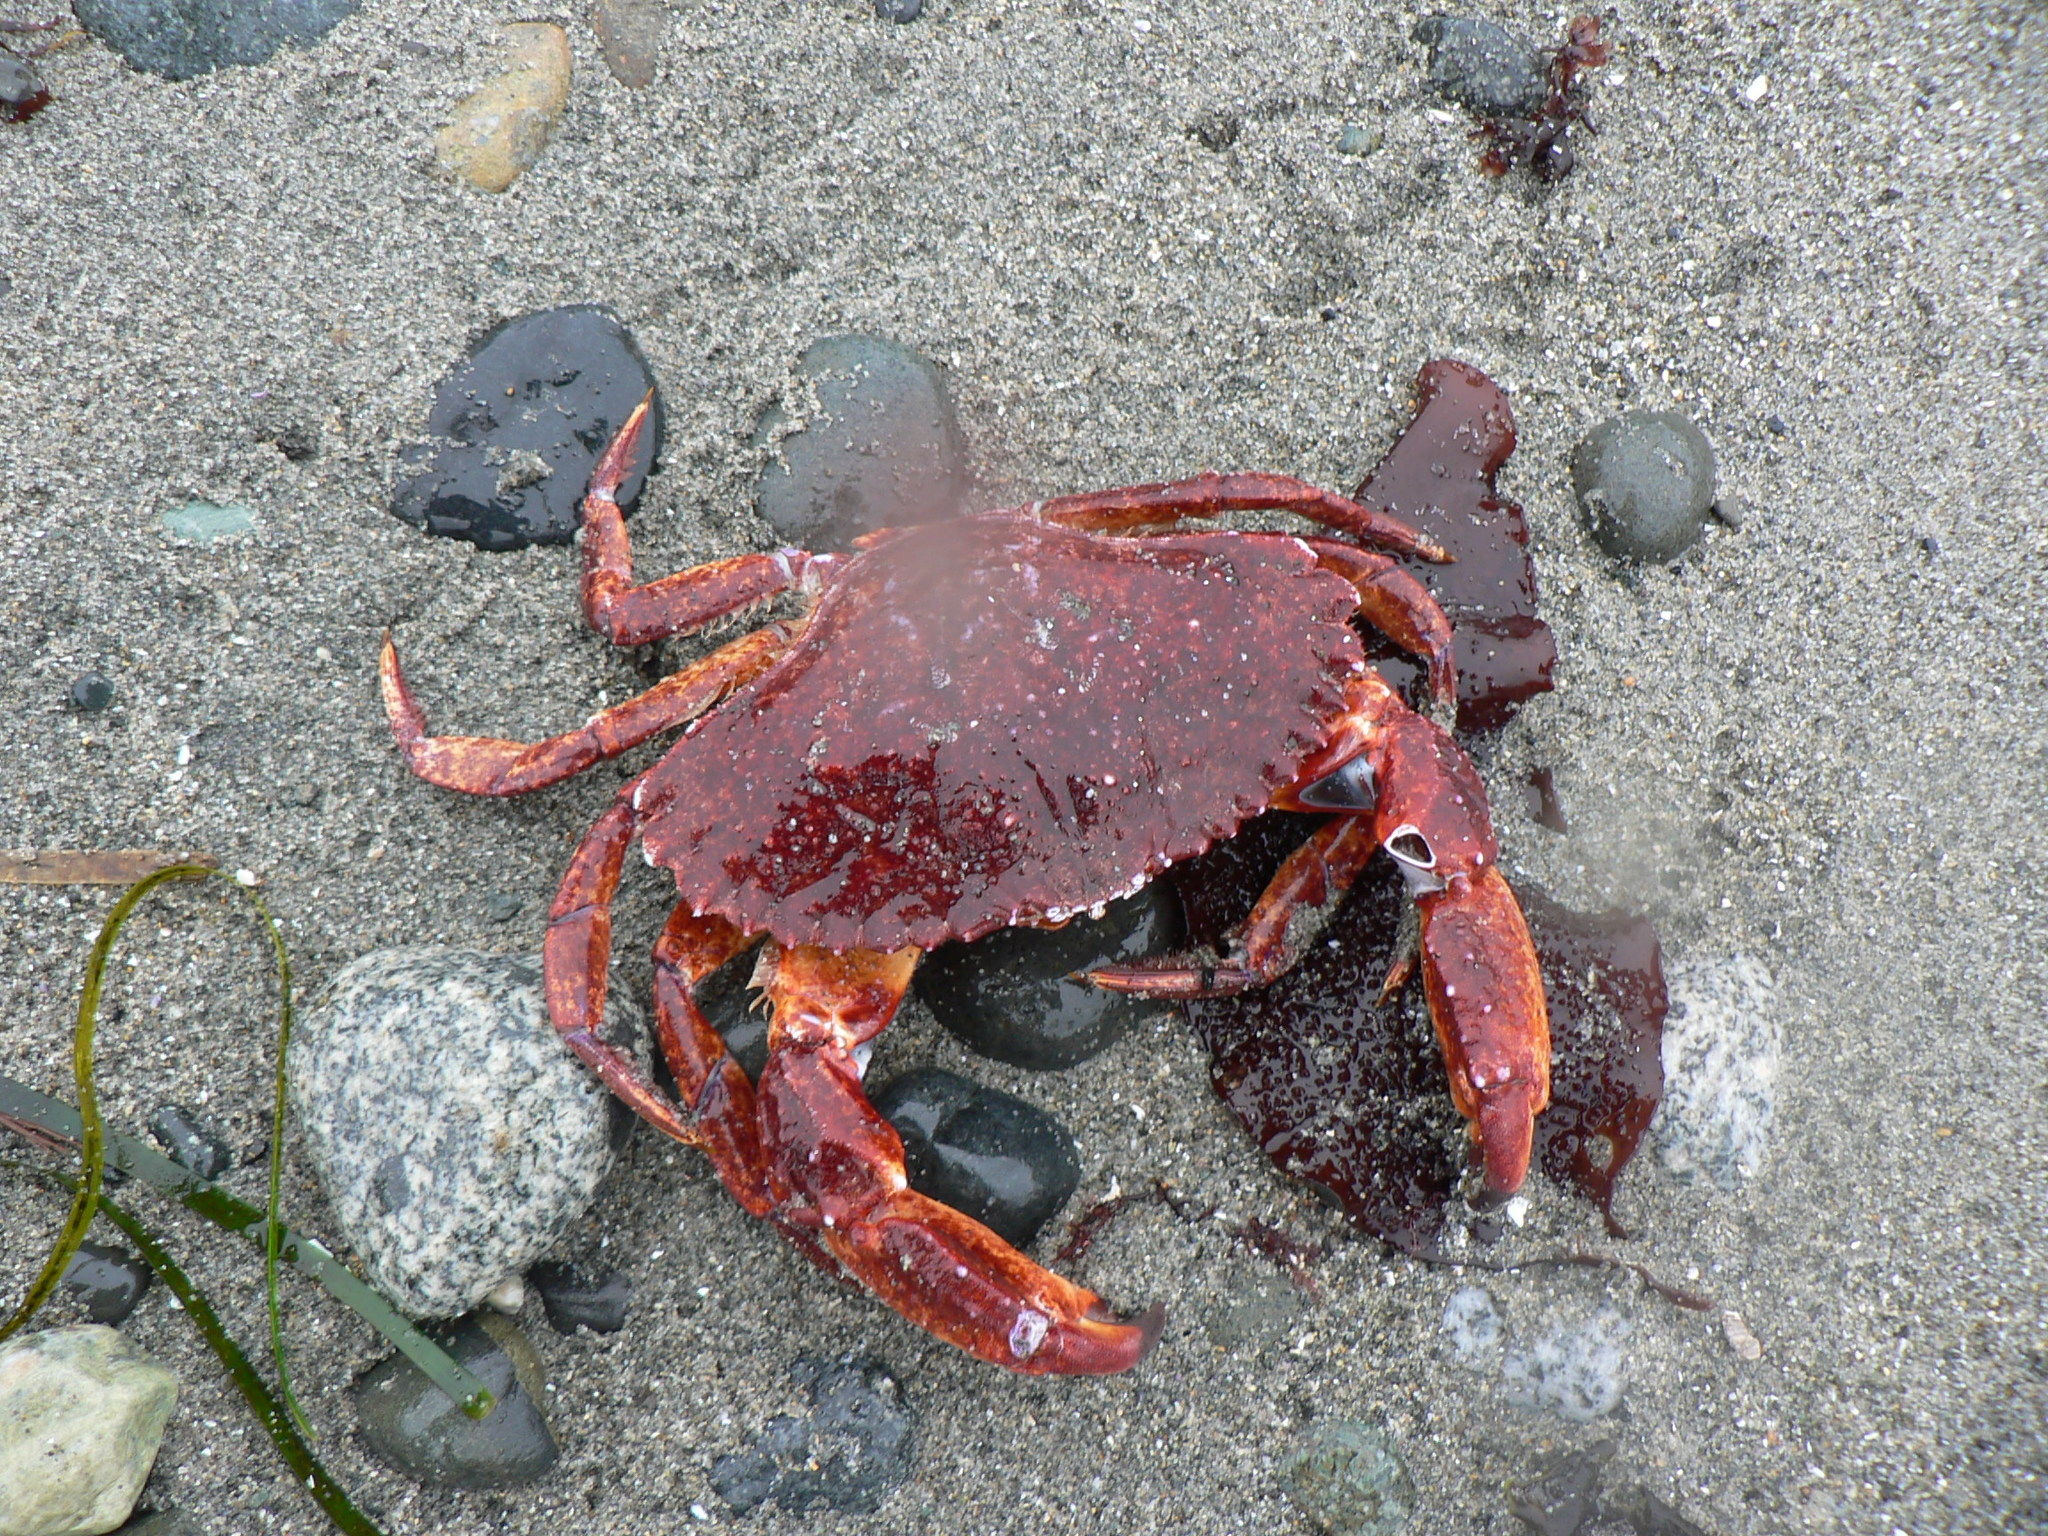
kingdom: Animalia
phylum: Arthropoda
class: Malacostraca
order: Decapoda
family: Cancridae
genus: Cancer
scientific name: Cancer productus
